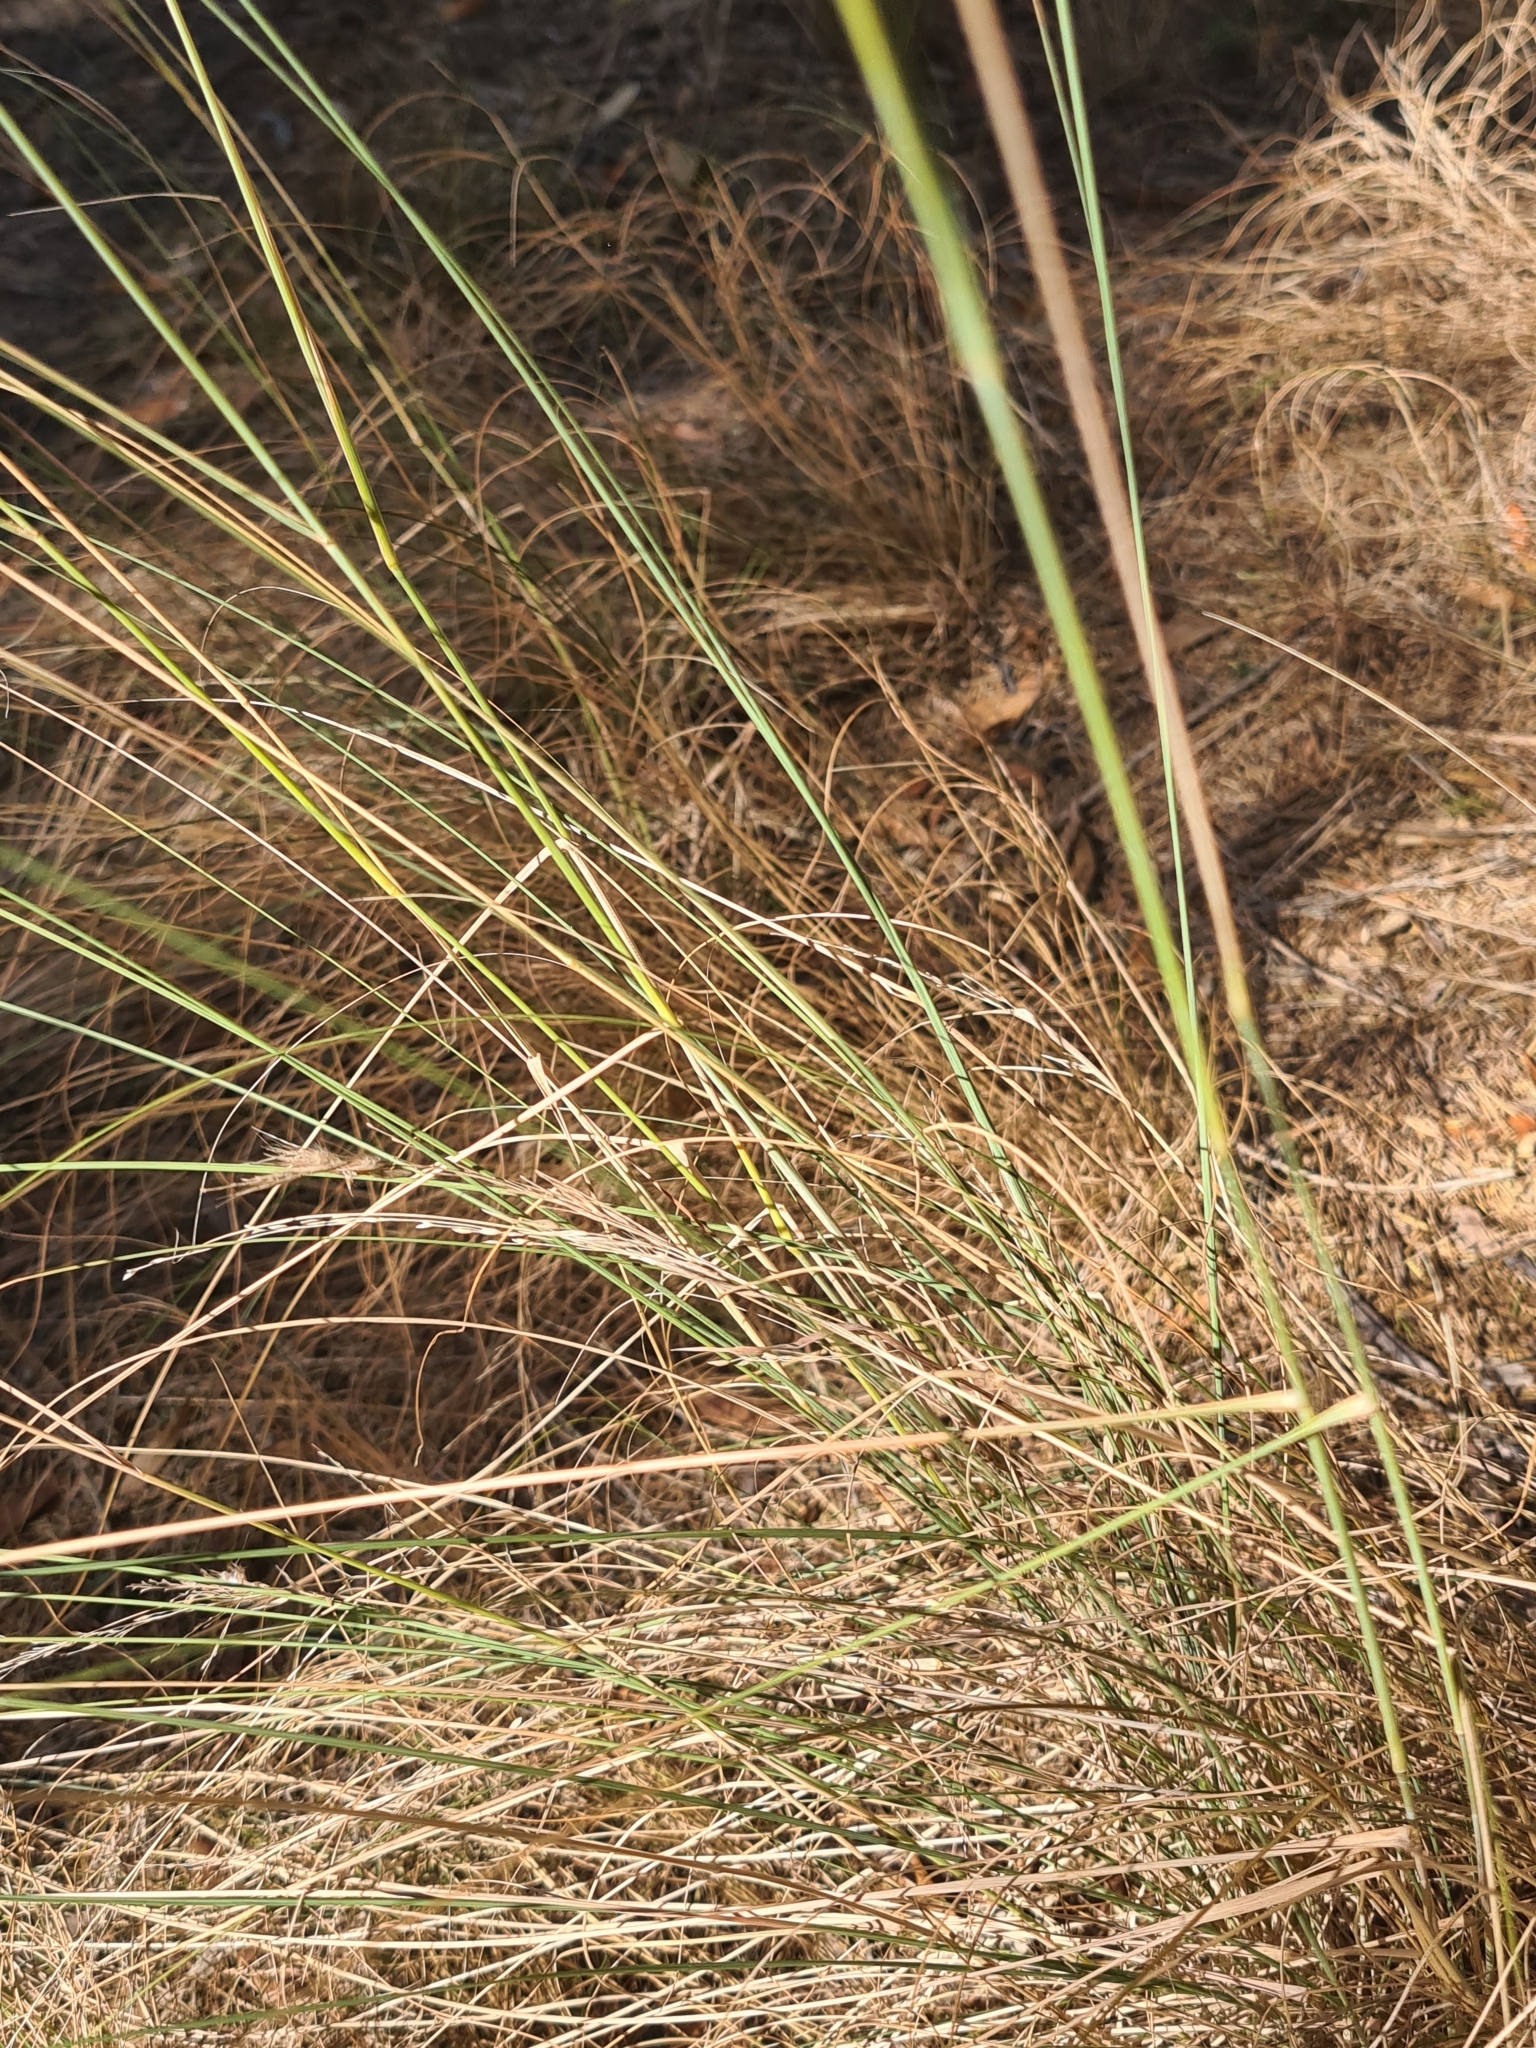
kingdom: Plantae
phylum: Tracheophyta
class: Liliopsida
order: Poales
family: Poaceae
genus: Eragrostis
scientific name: Eragrostis curvula
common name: African love-grass
